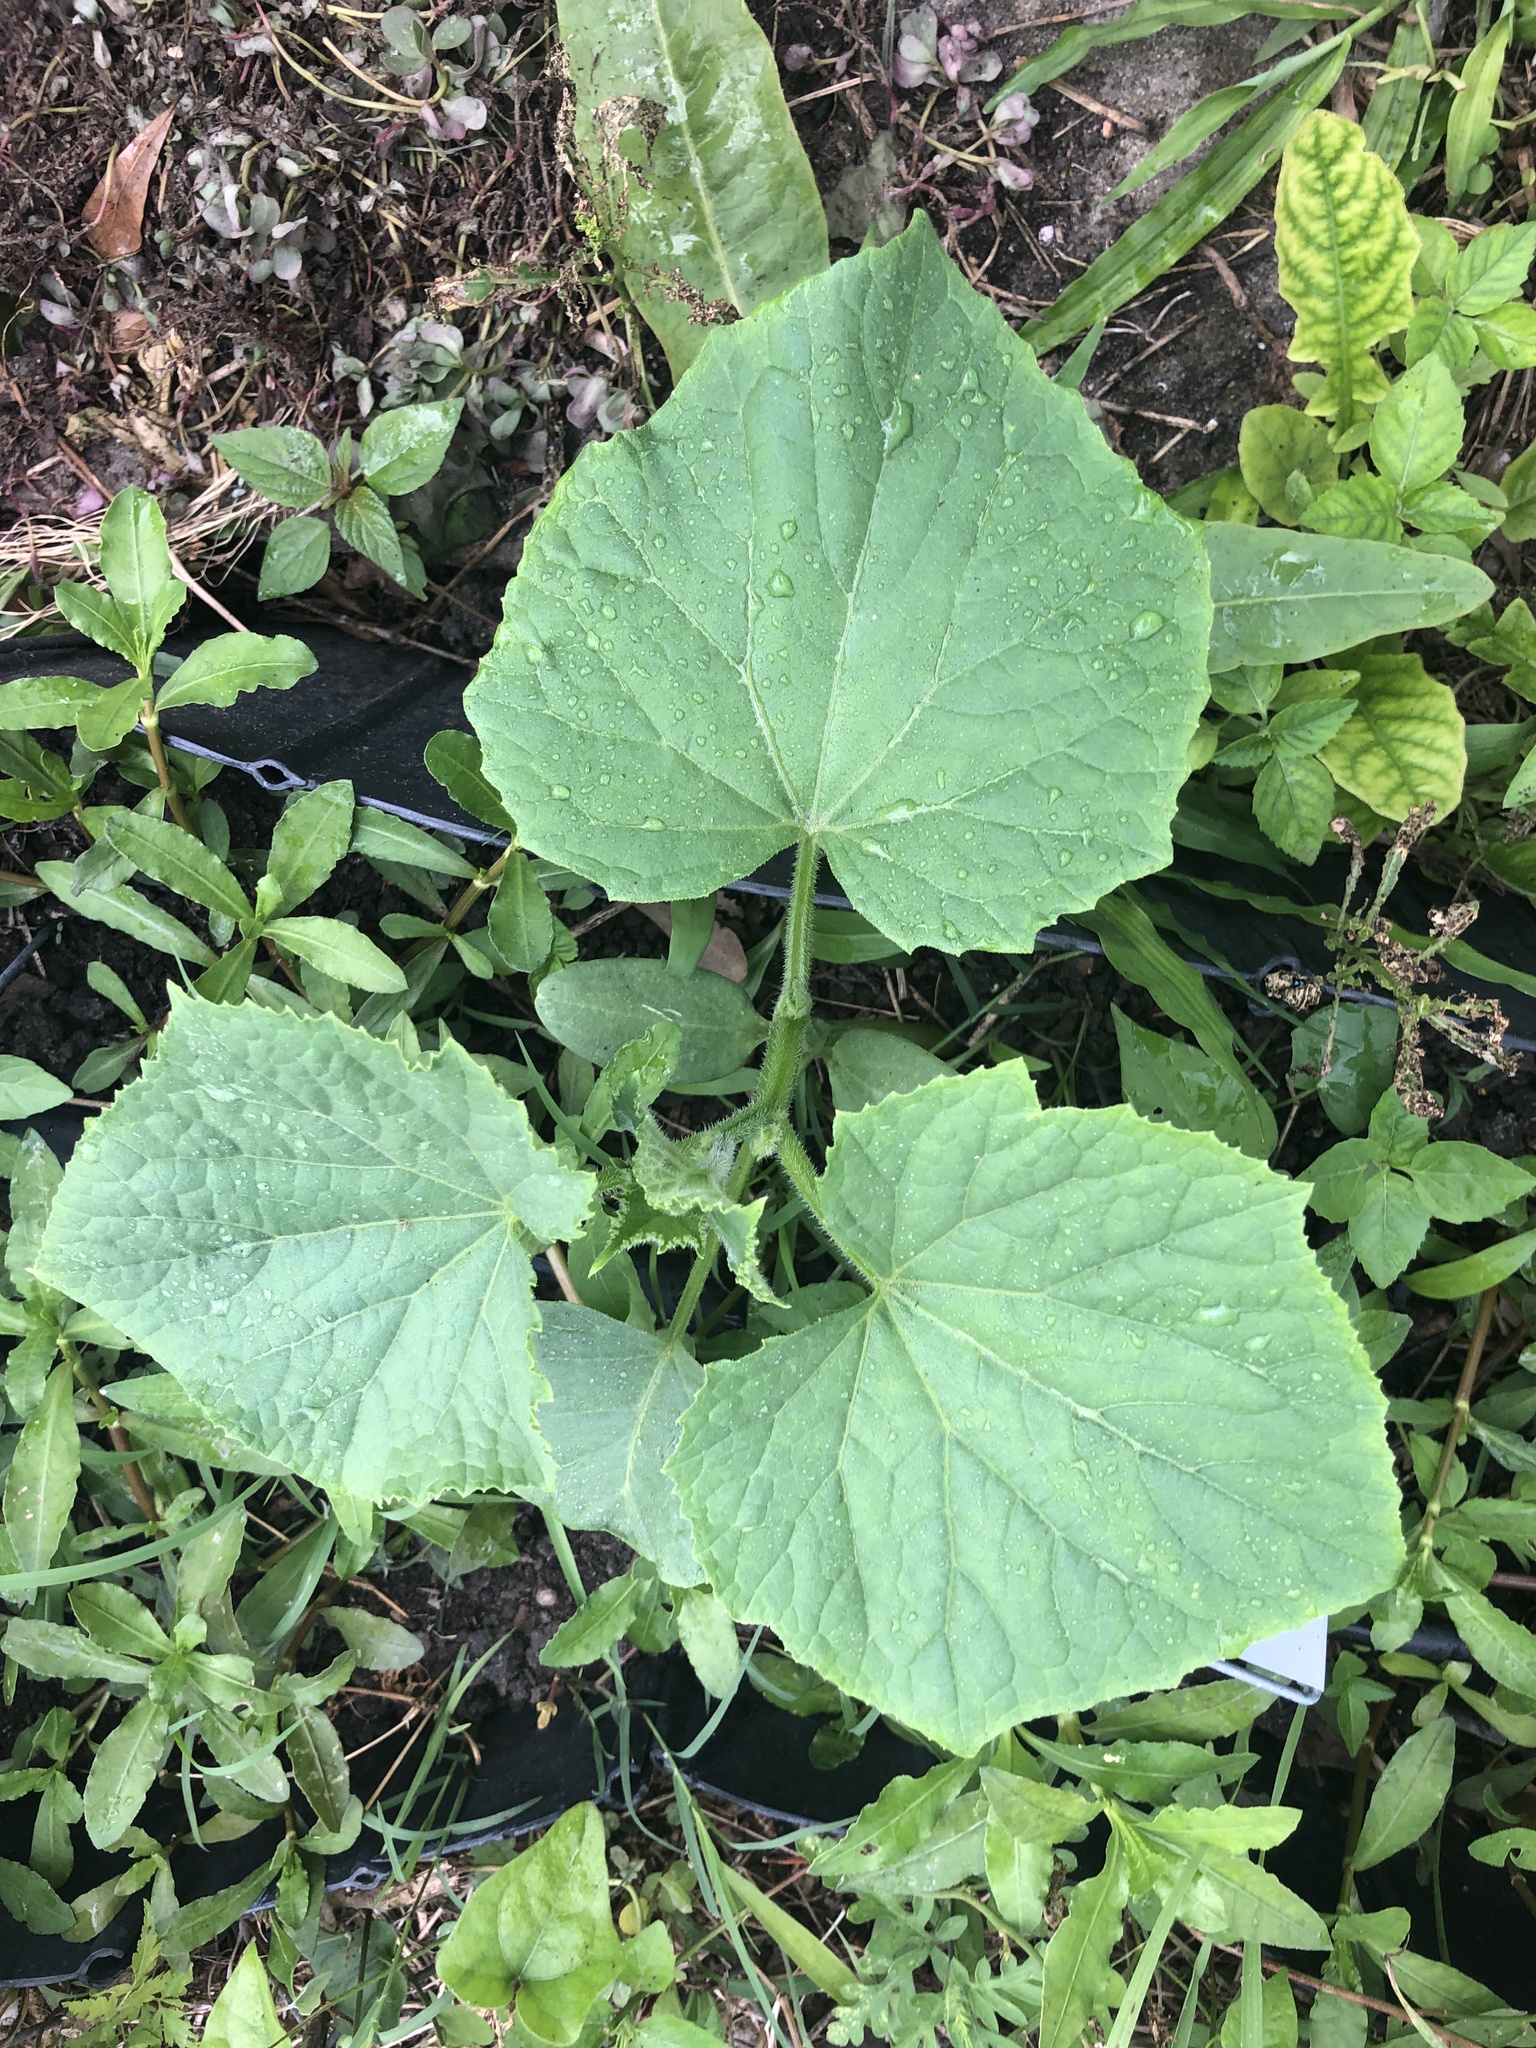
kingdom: Plantae
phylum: Tracheophyta
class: Magnoliopsida
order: Cucurbitales
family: Cucurbitaceae
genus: Cucumis
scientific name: Cucumis sativus
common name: Cucumber
